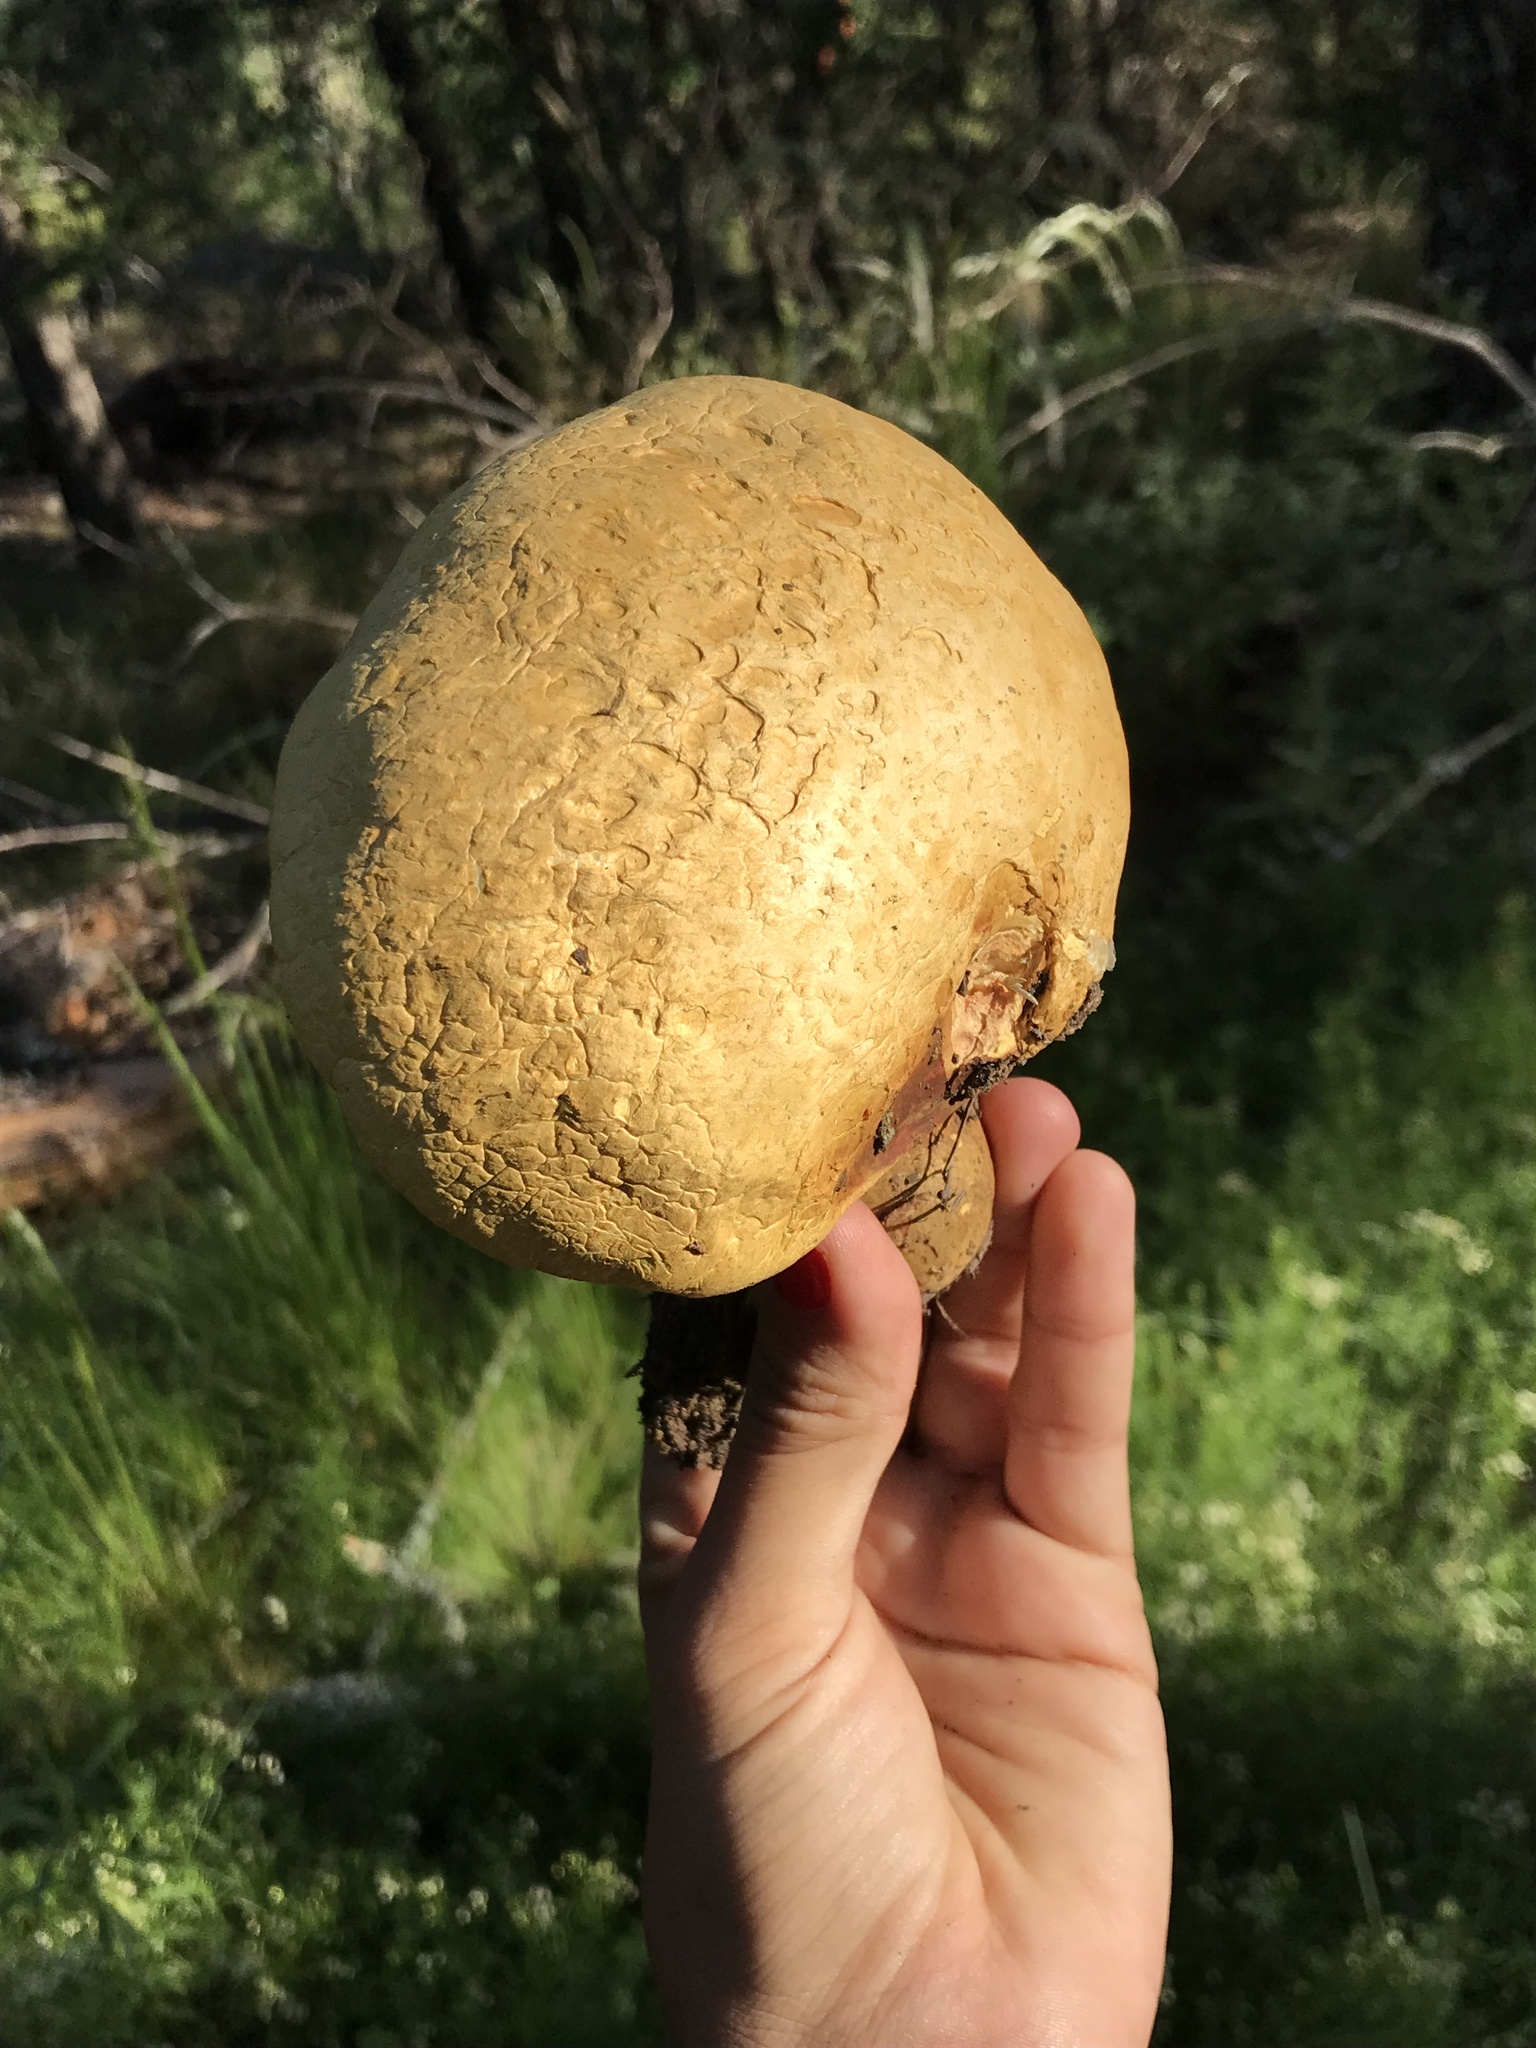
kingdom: Fungi
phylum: Basidiomycota
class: Agaricomycetes
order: Boletales
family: Boletaceae
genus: Chalciporus
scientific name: Chalciporus hemichrysus
